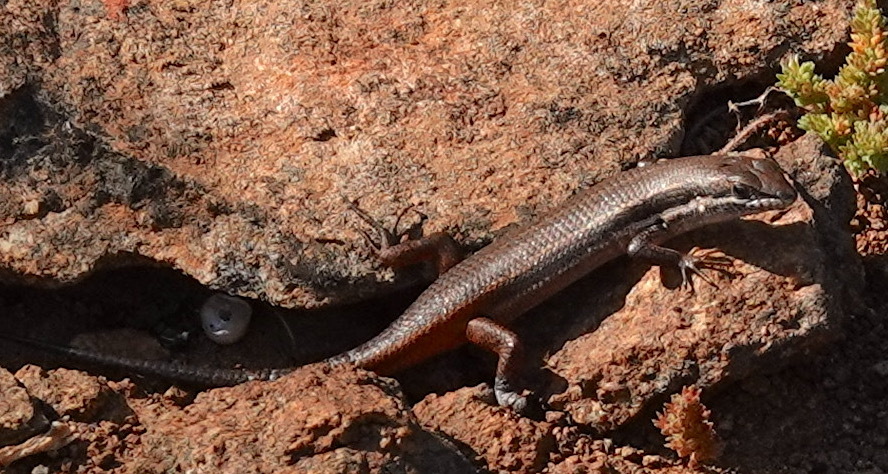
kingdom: Animalia
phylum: Chordata
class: Squamata
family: Scincidae
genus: Trachylepis
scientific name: Trachylepis variegata
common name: Variegated skink
